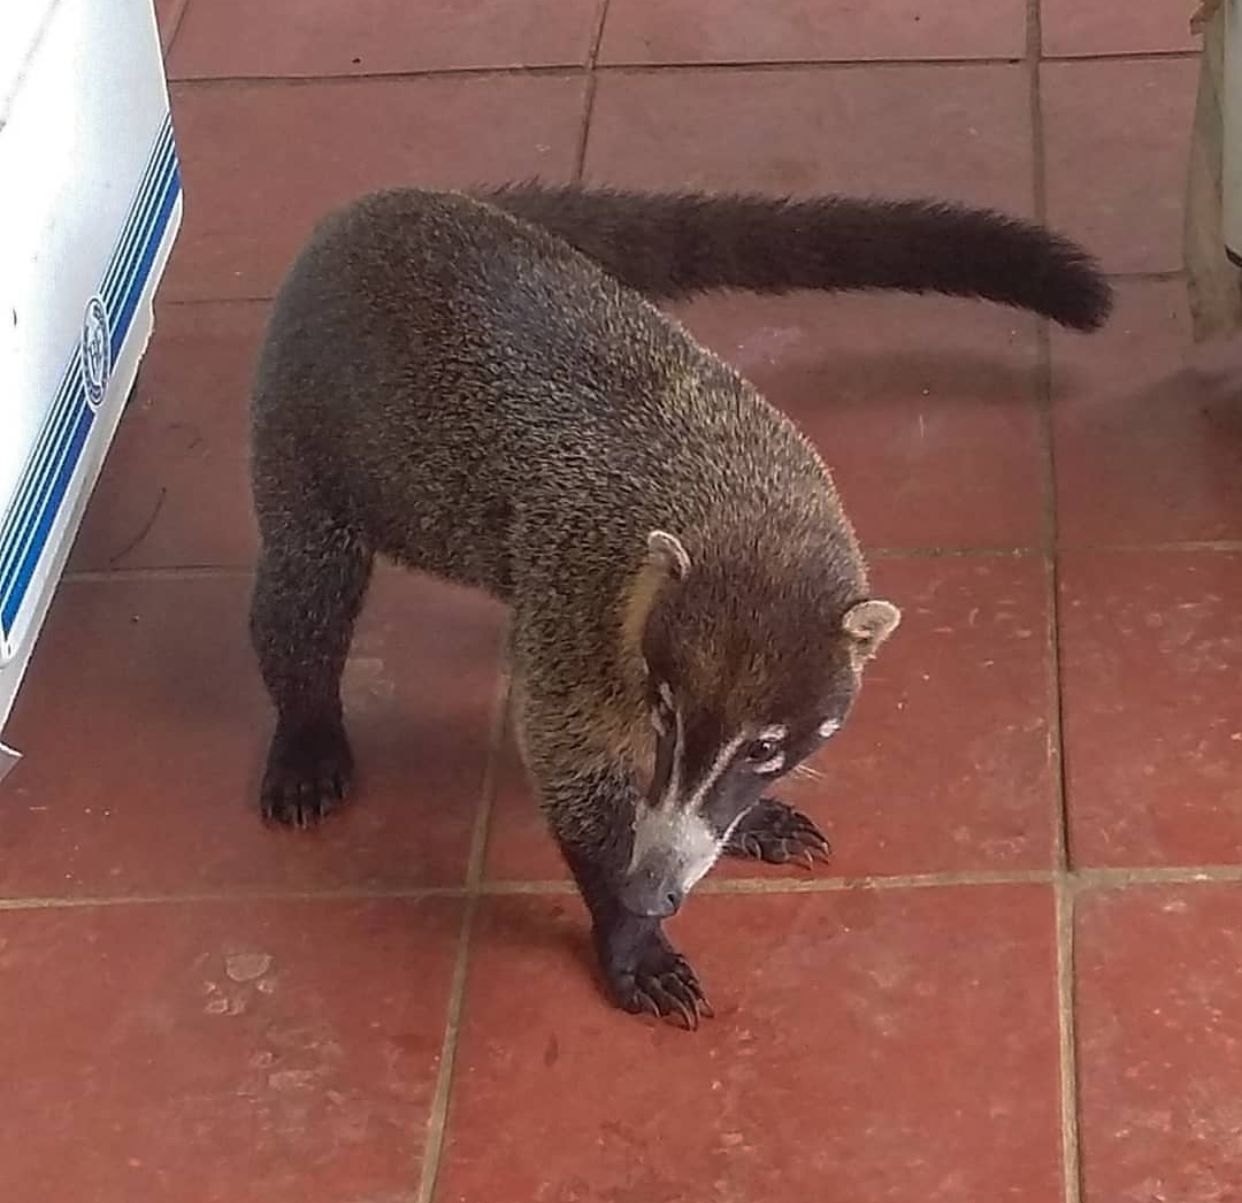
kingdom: Animalia
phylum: Chordata
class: Mammalia
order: Carnivora
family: Procyonidae
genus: Nasua
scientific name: Nasua narica
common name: White-nosed coati
